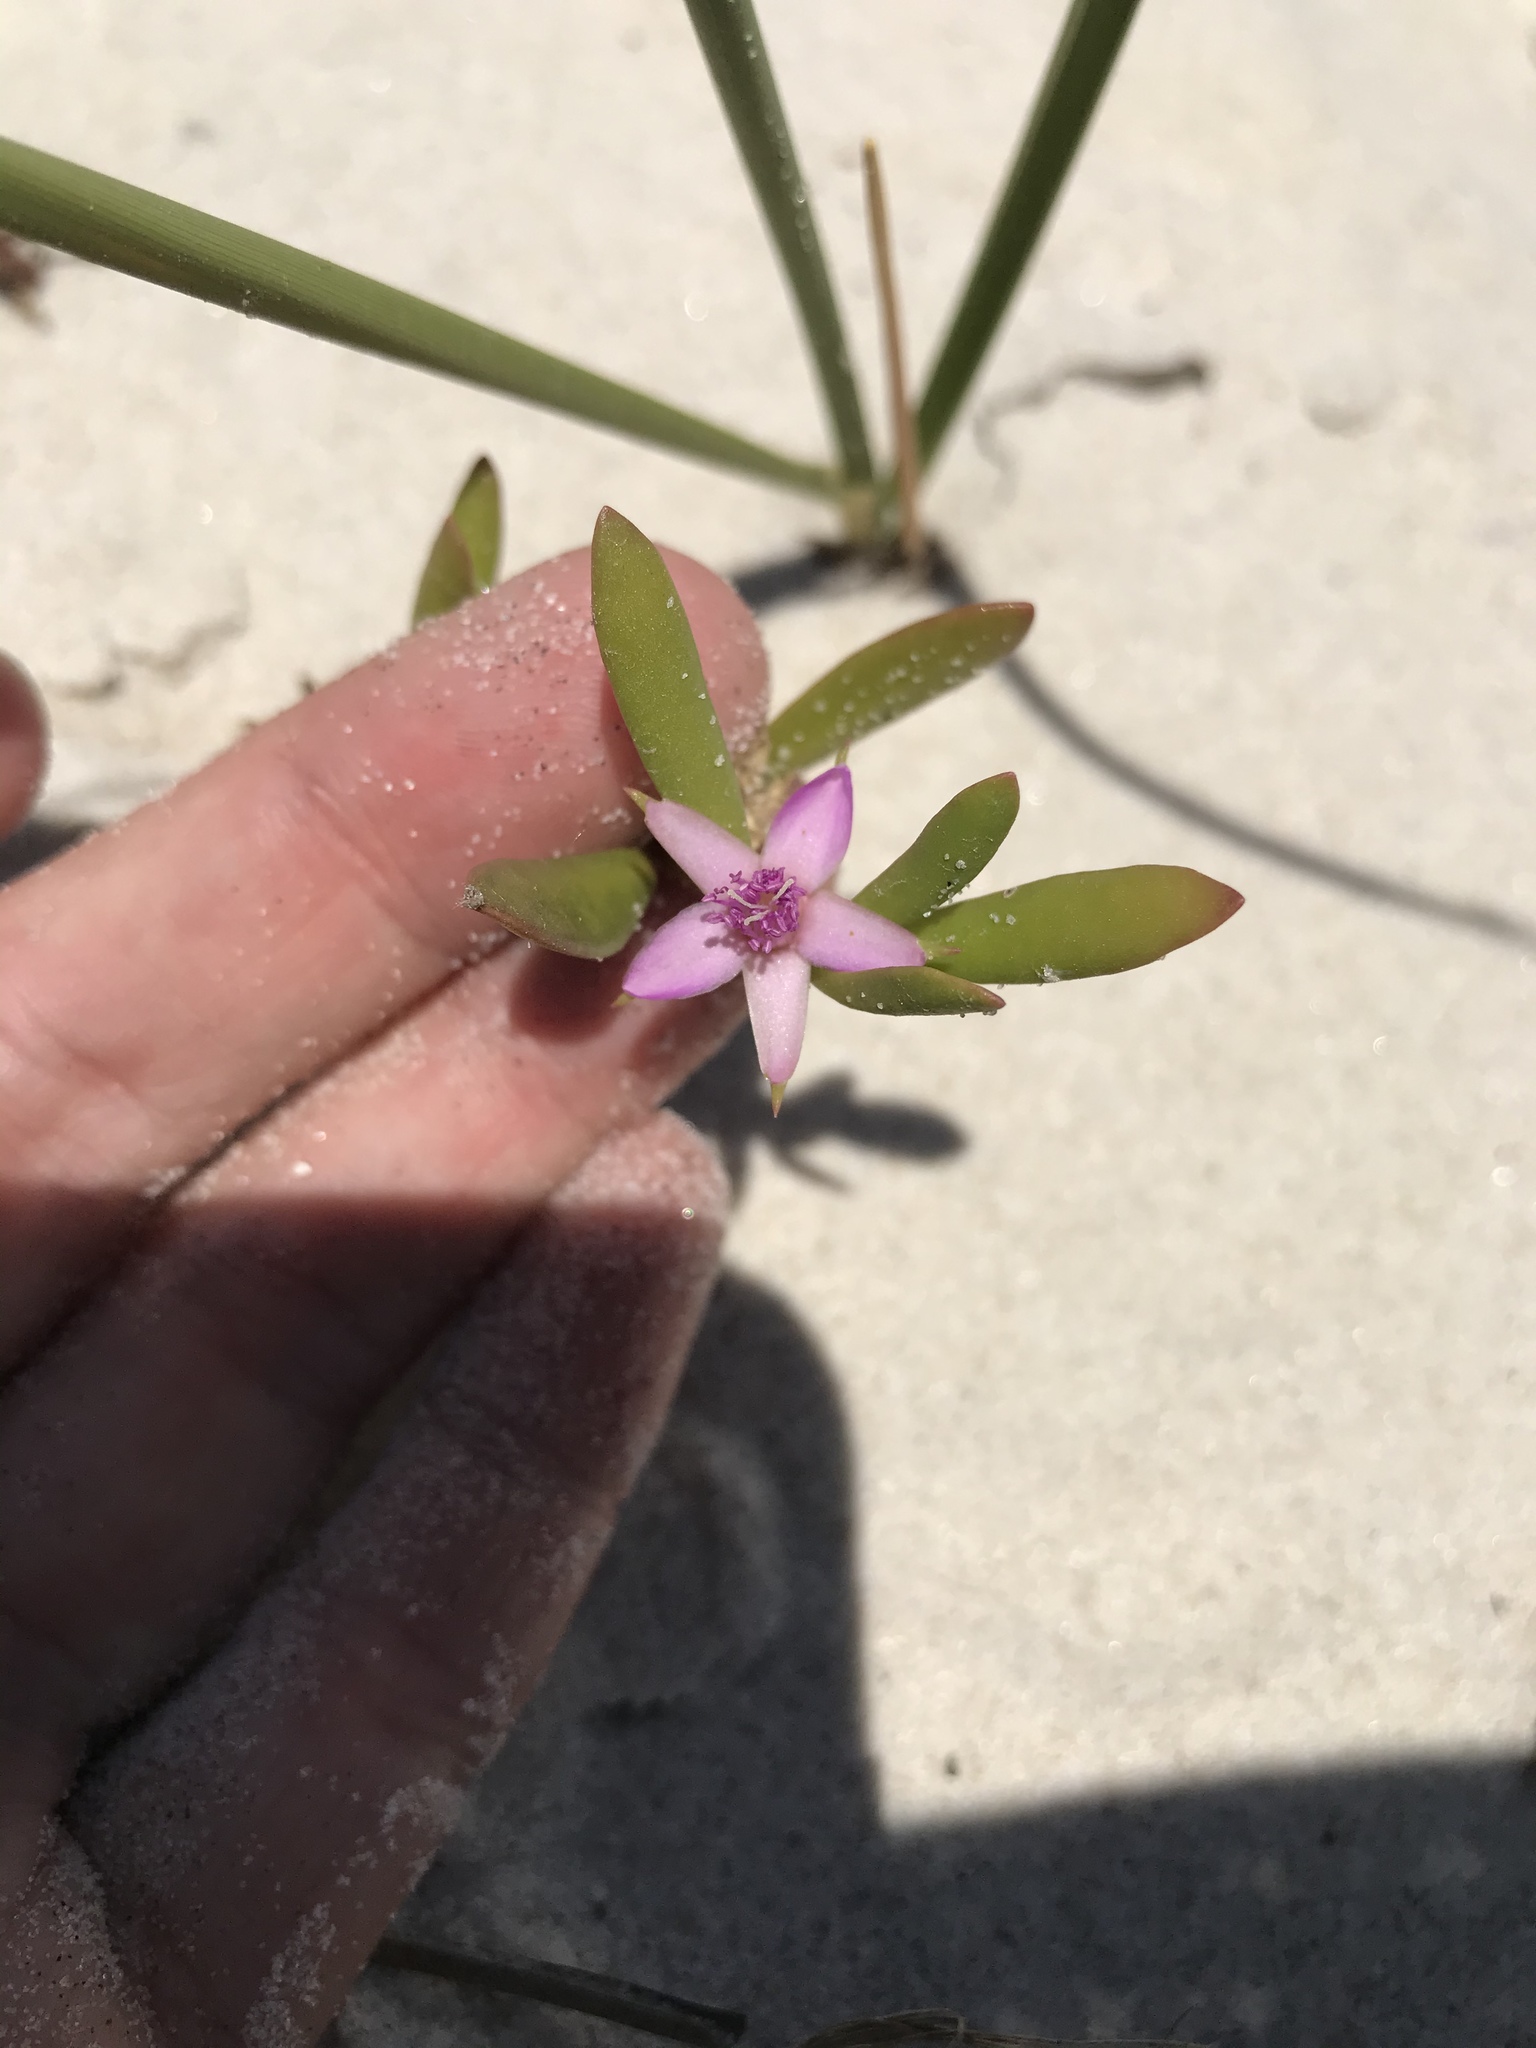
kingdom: Plantae
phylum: Tracheophyta
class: Magnoliopsida
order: Caryophyllales
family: Aizoaceae
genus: Sesuvium
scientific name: Sesuvium portulacastrum
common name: Sea-purslane
